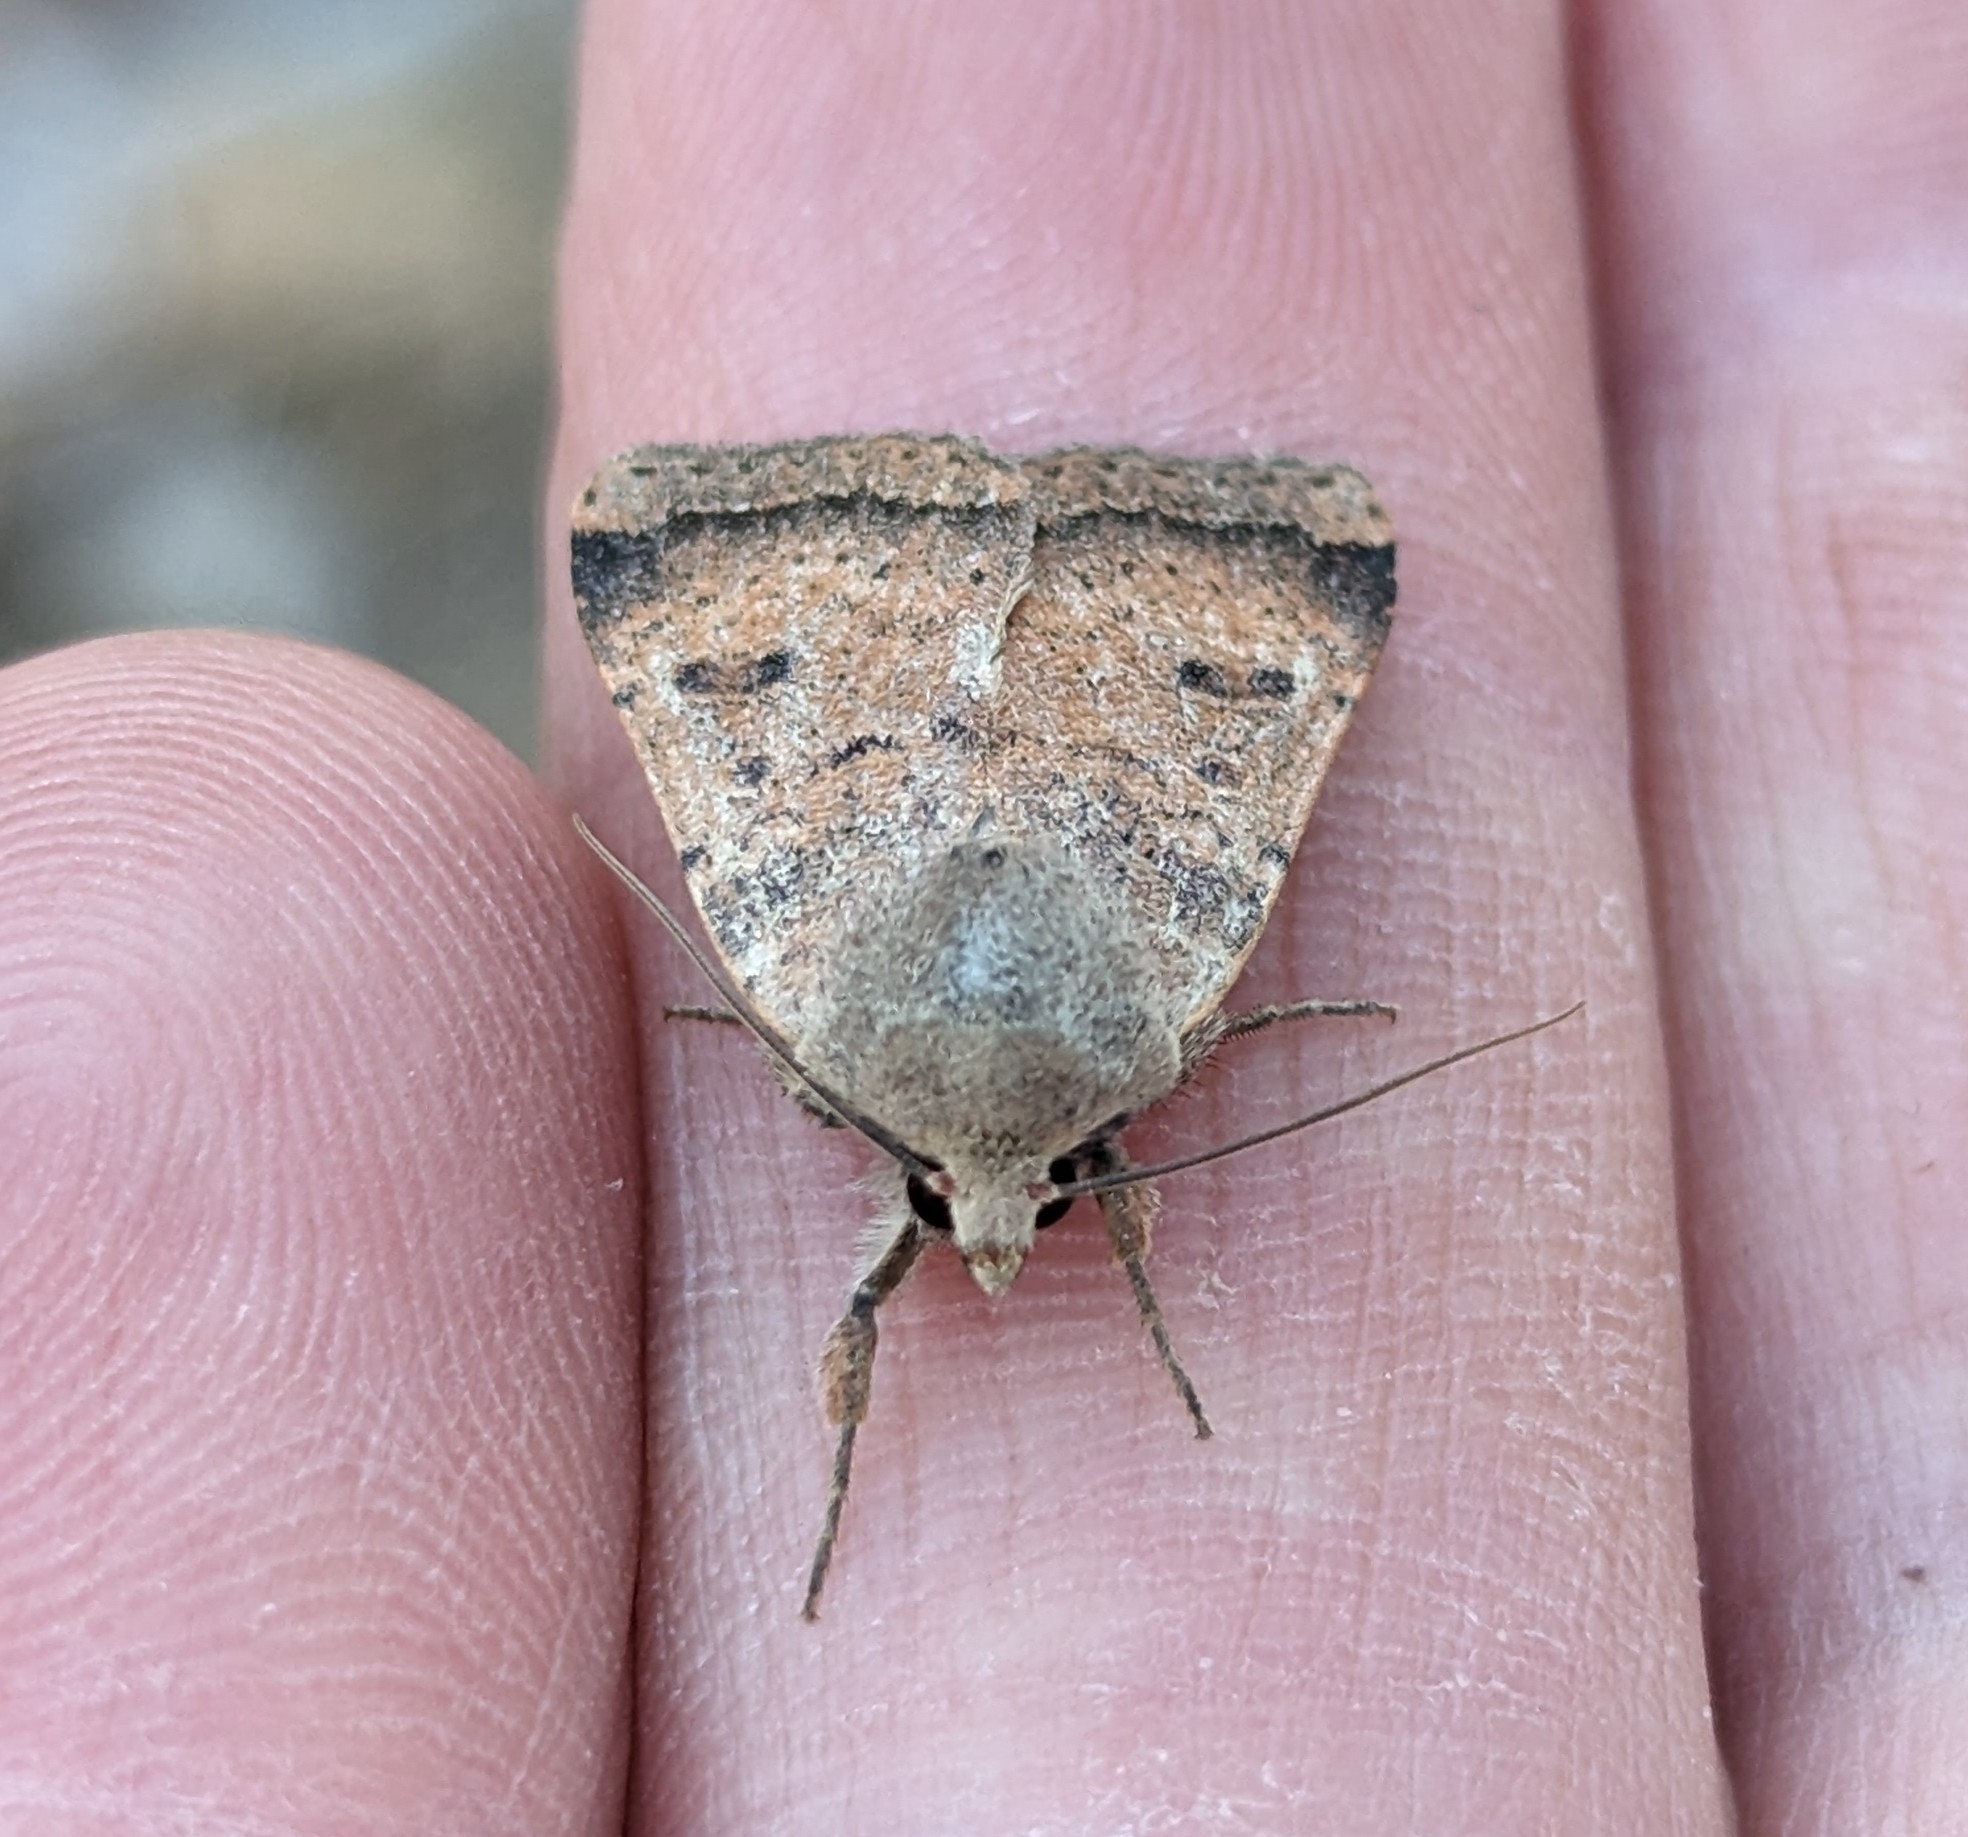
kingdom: Animalia
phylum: Arthropoda
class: Insecta
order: Lepidoptera
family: Noctuidae
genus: Abagrotis
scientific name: Abagrotis trigona
